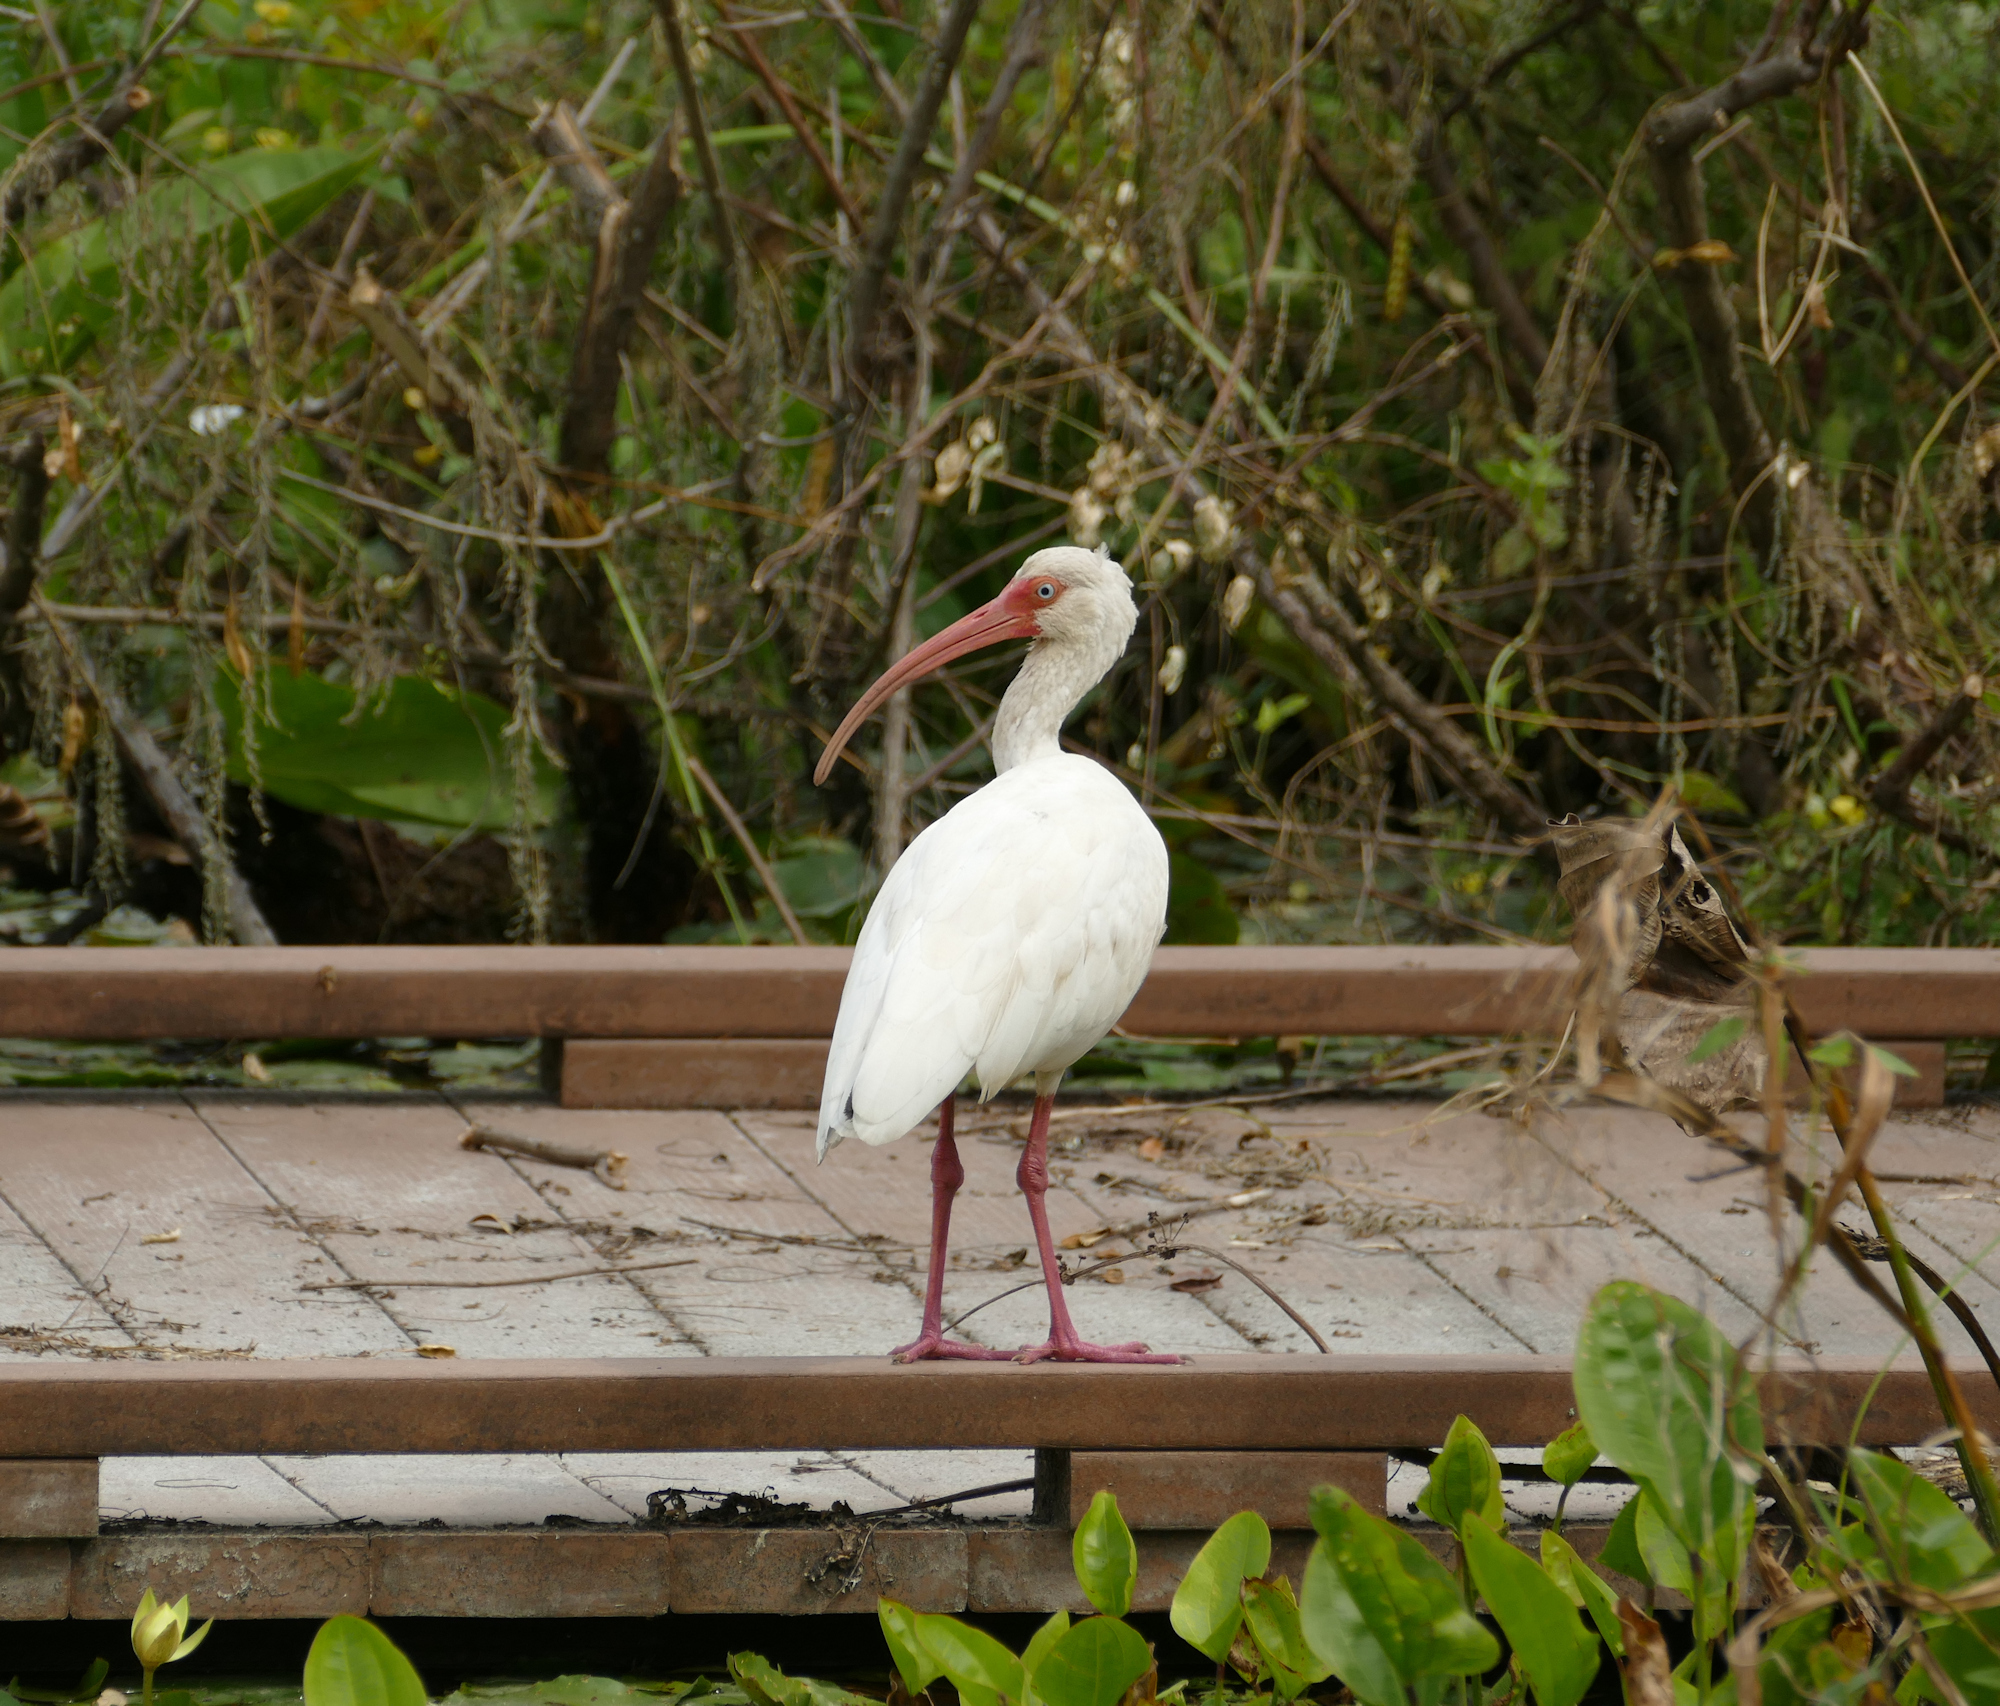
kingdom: Animalia
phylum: Chordata
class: Aves
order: Pelecaniformes
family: Threskiornithidae
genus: Eudocimus
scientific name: Eudocimus albus
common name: White ibis
